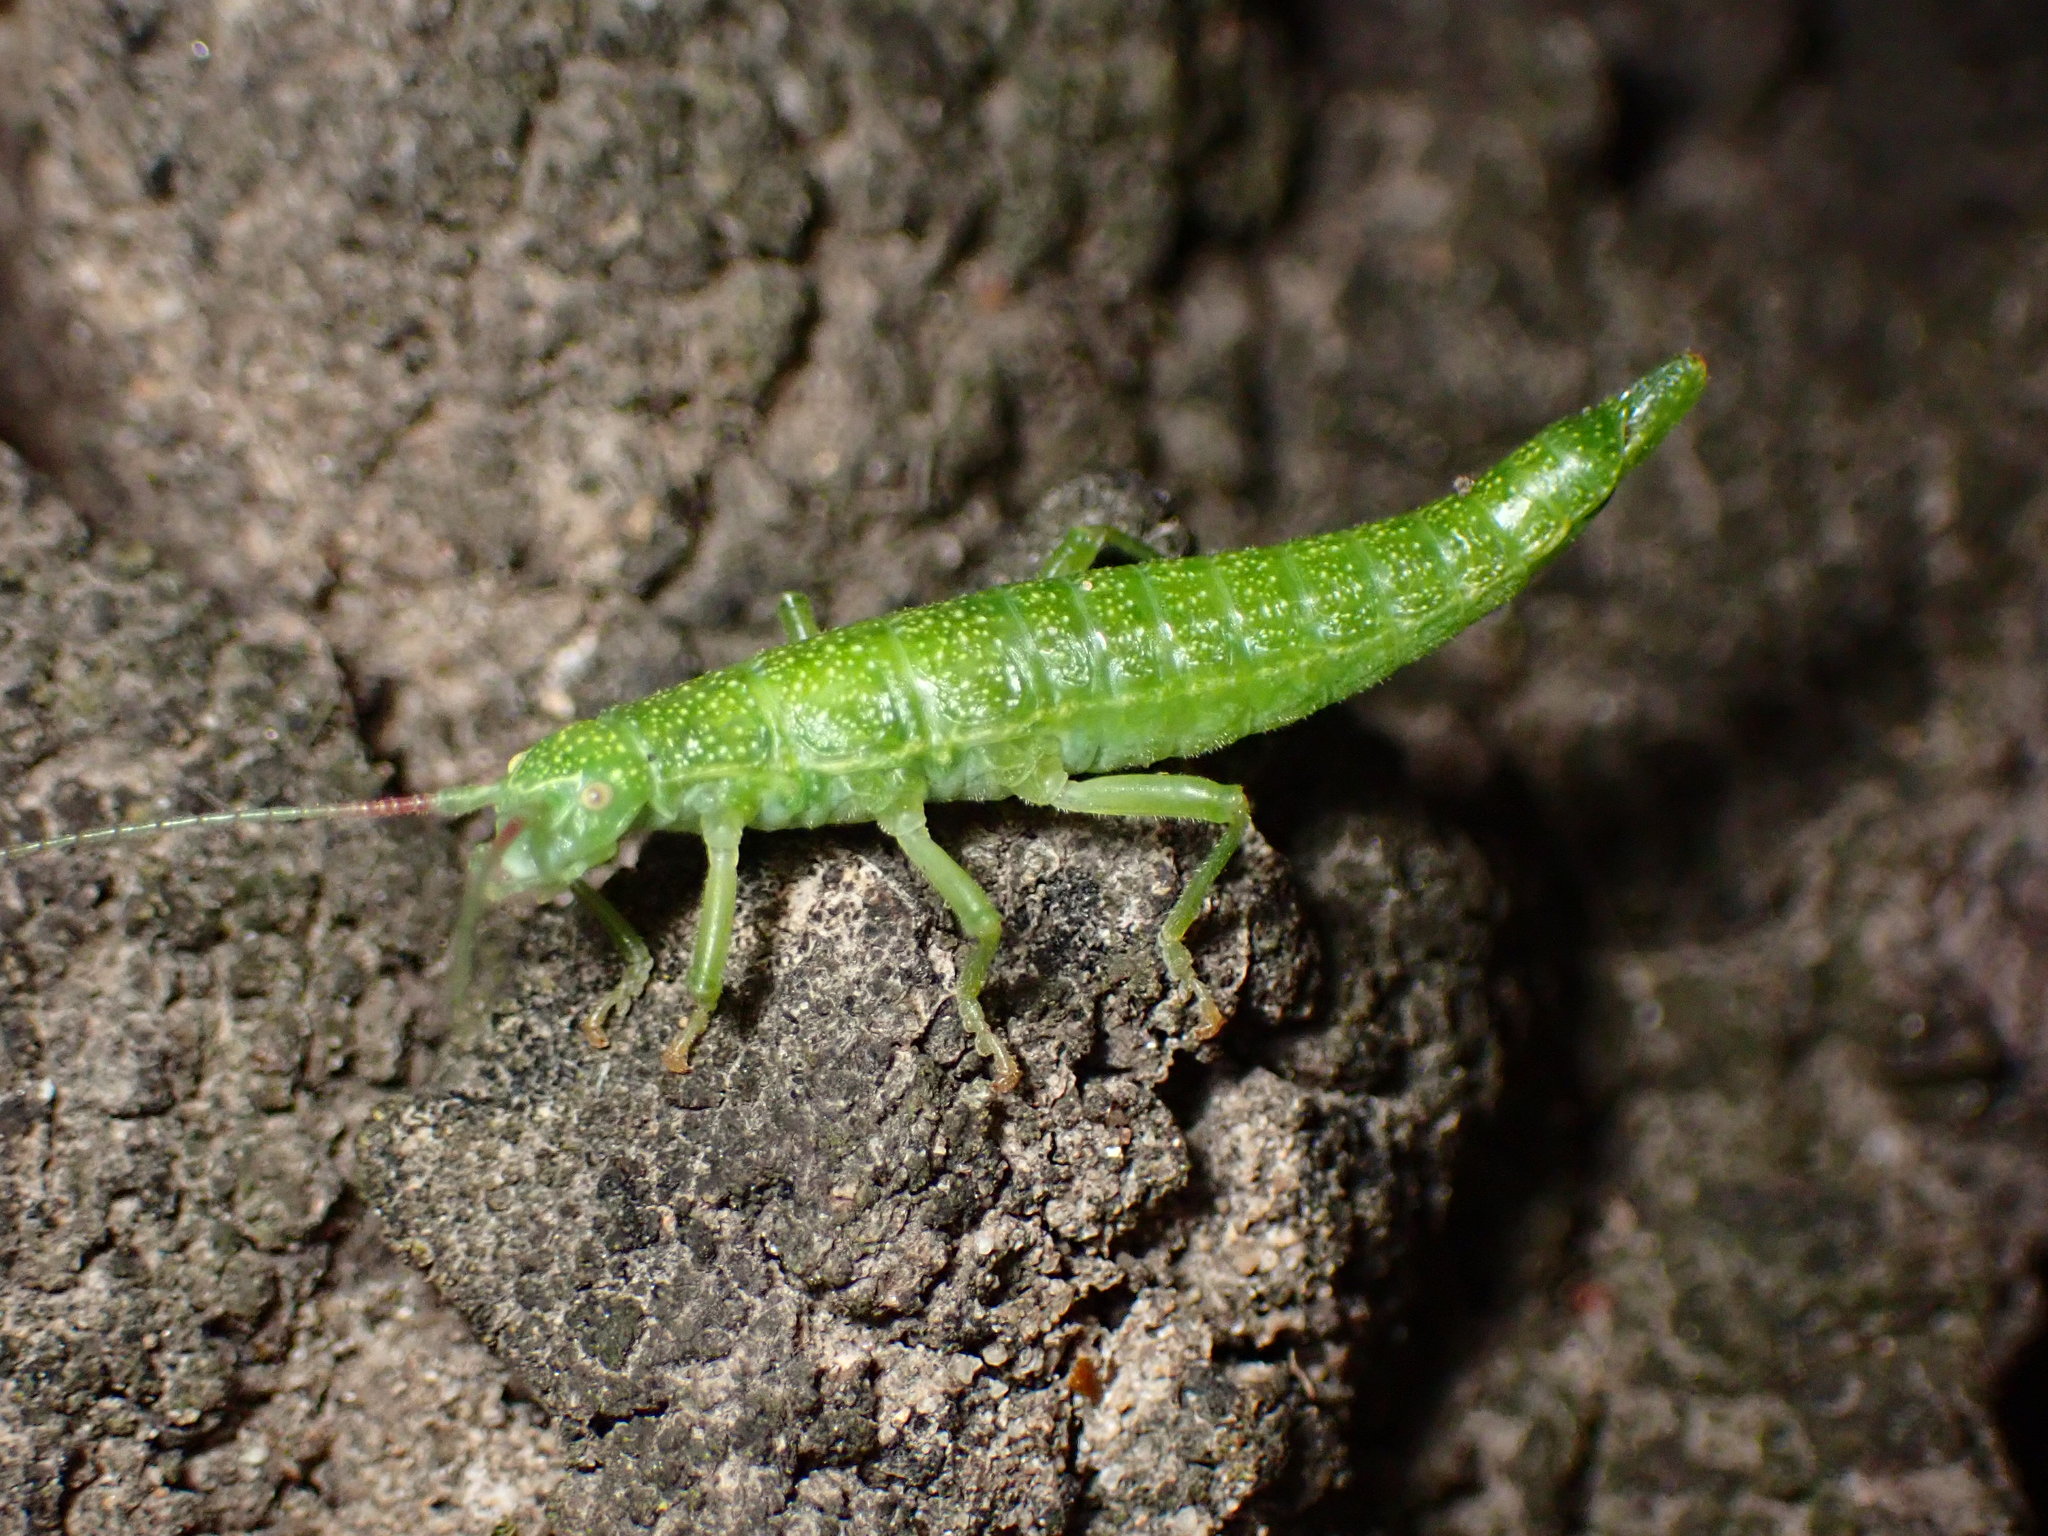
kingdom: Animalia
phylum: Arthropoda
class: Insecta
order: Phasmida
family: Timematidae
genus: Timema
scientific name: Timema californicum
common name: California timema
